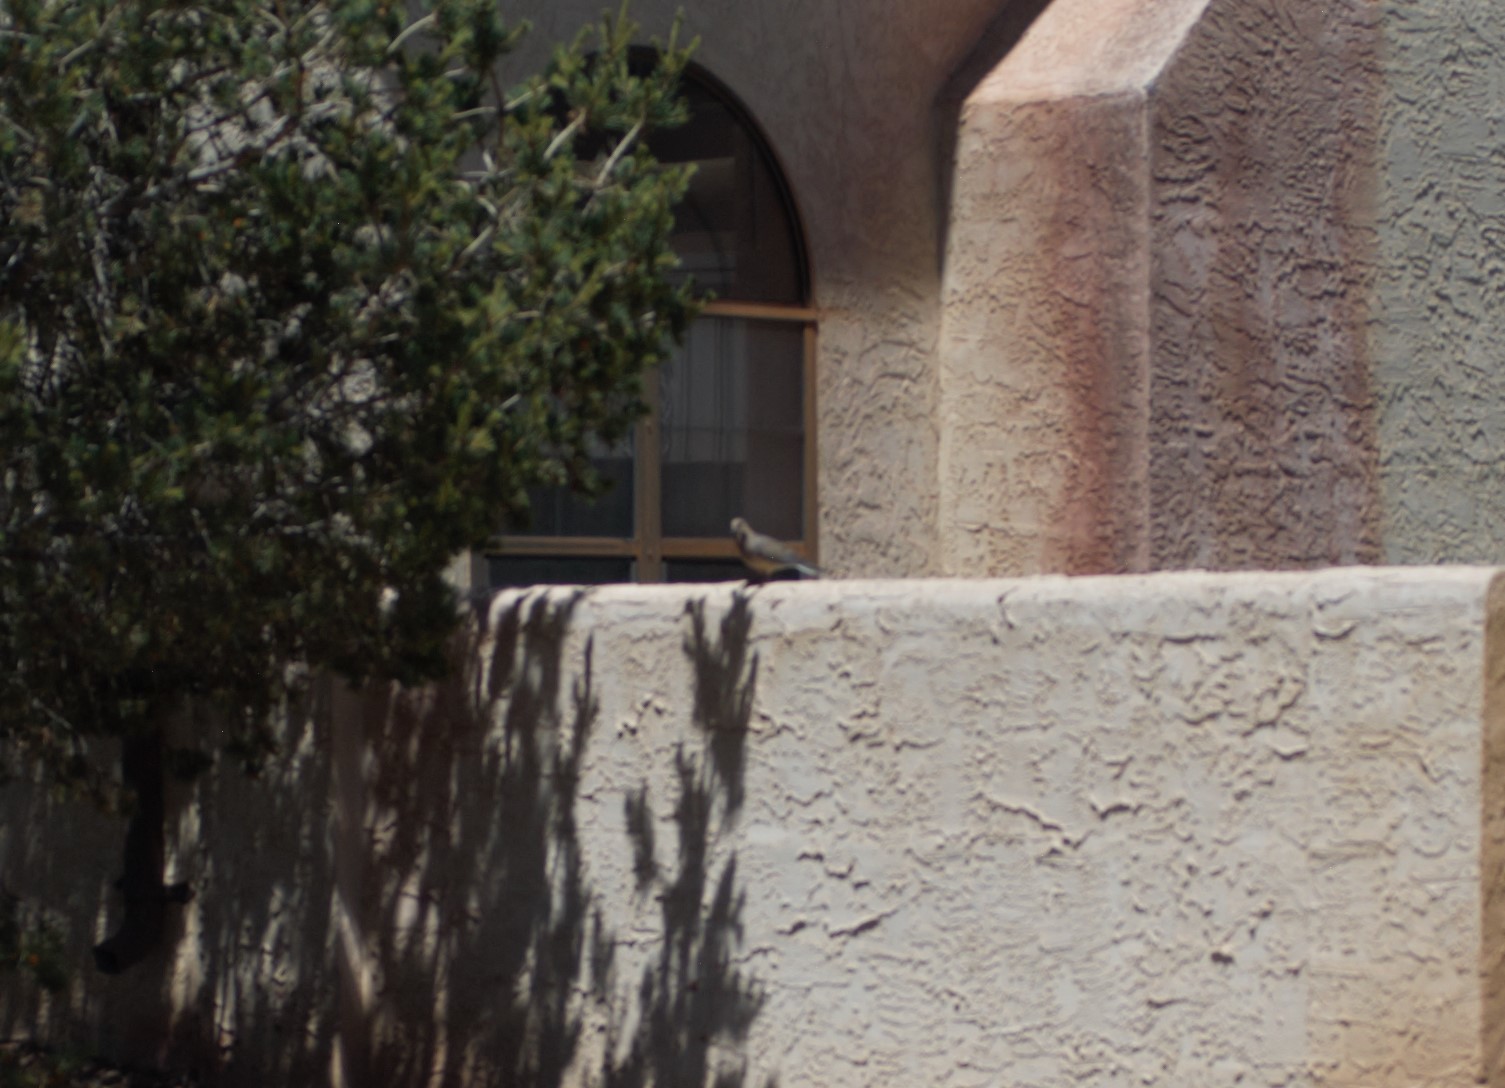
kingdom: Animalia
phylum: Chordata
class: Aves
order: Columbiformes
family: Columbidae
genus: Zenaida
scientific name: Zenaida macroura
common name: Mourning dove
